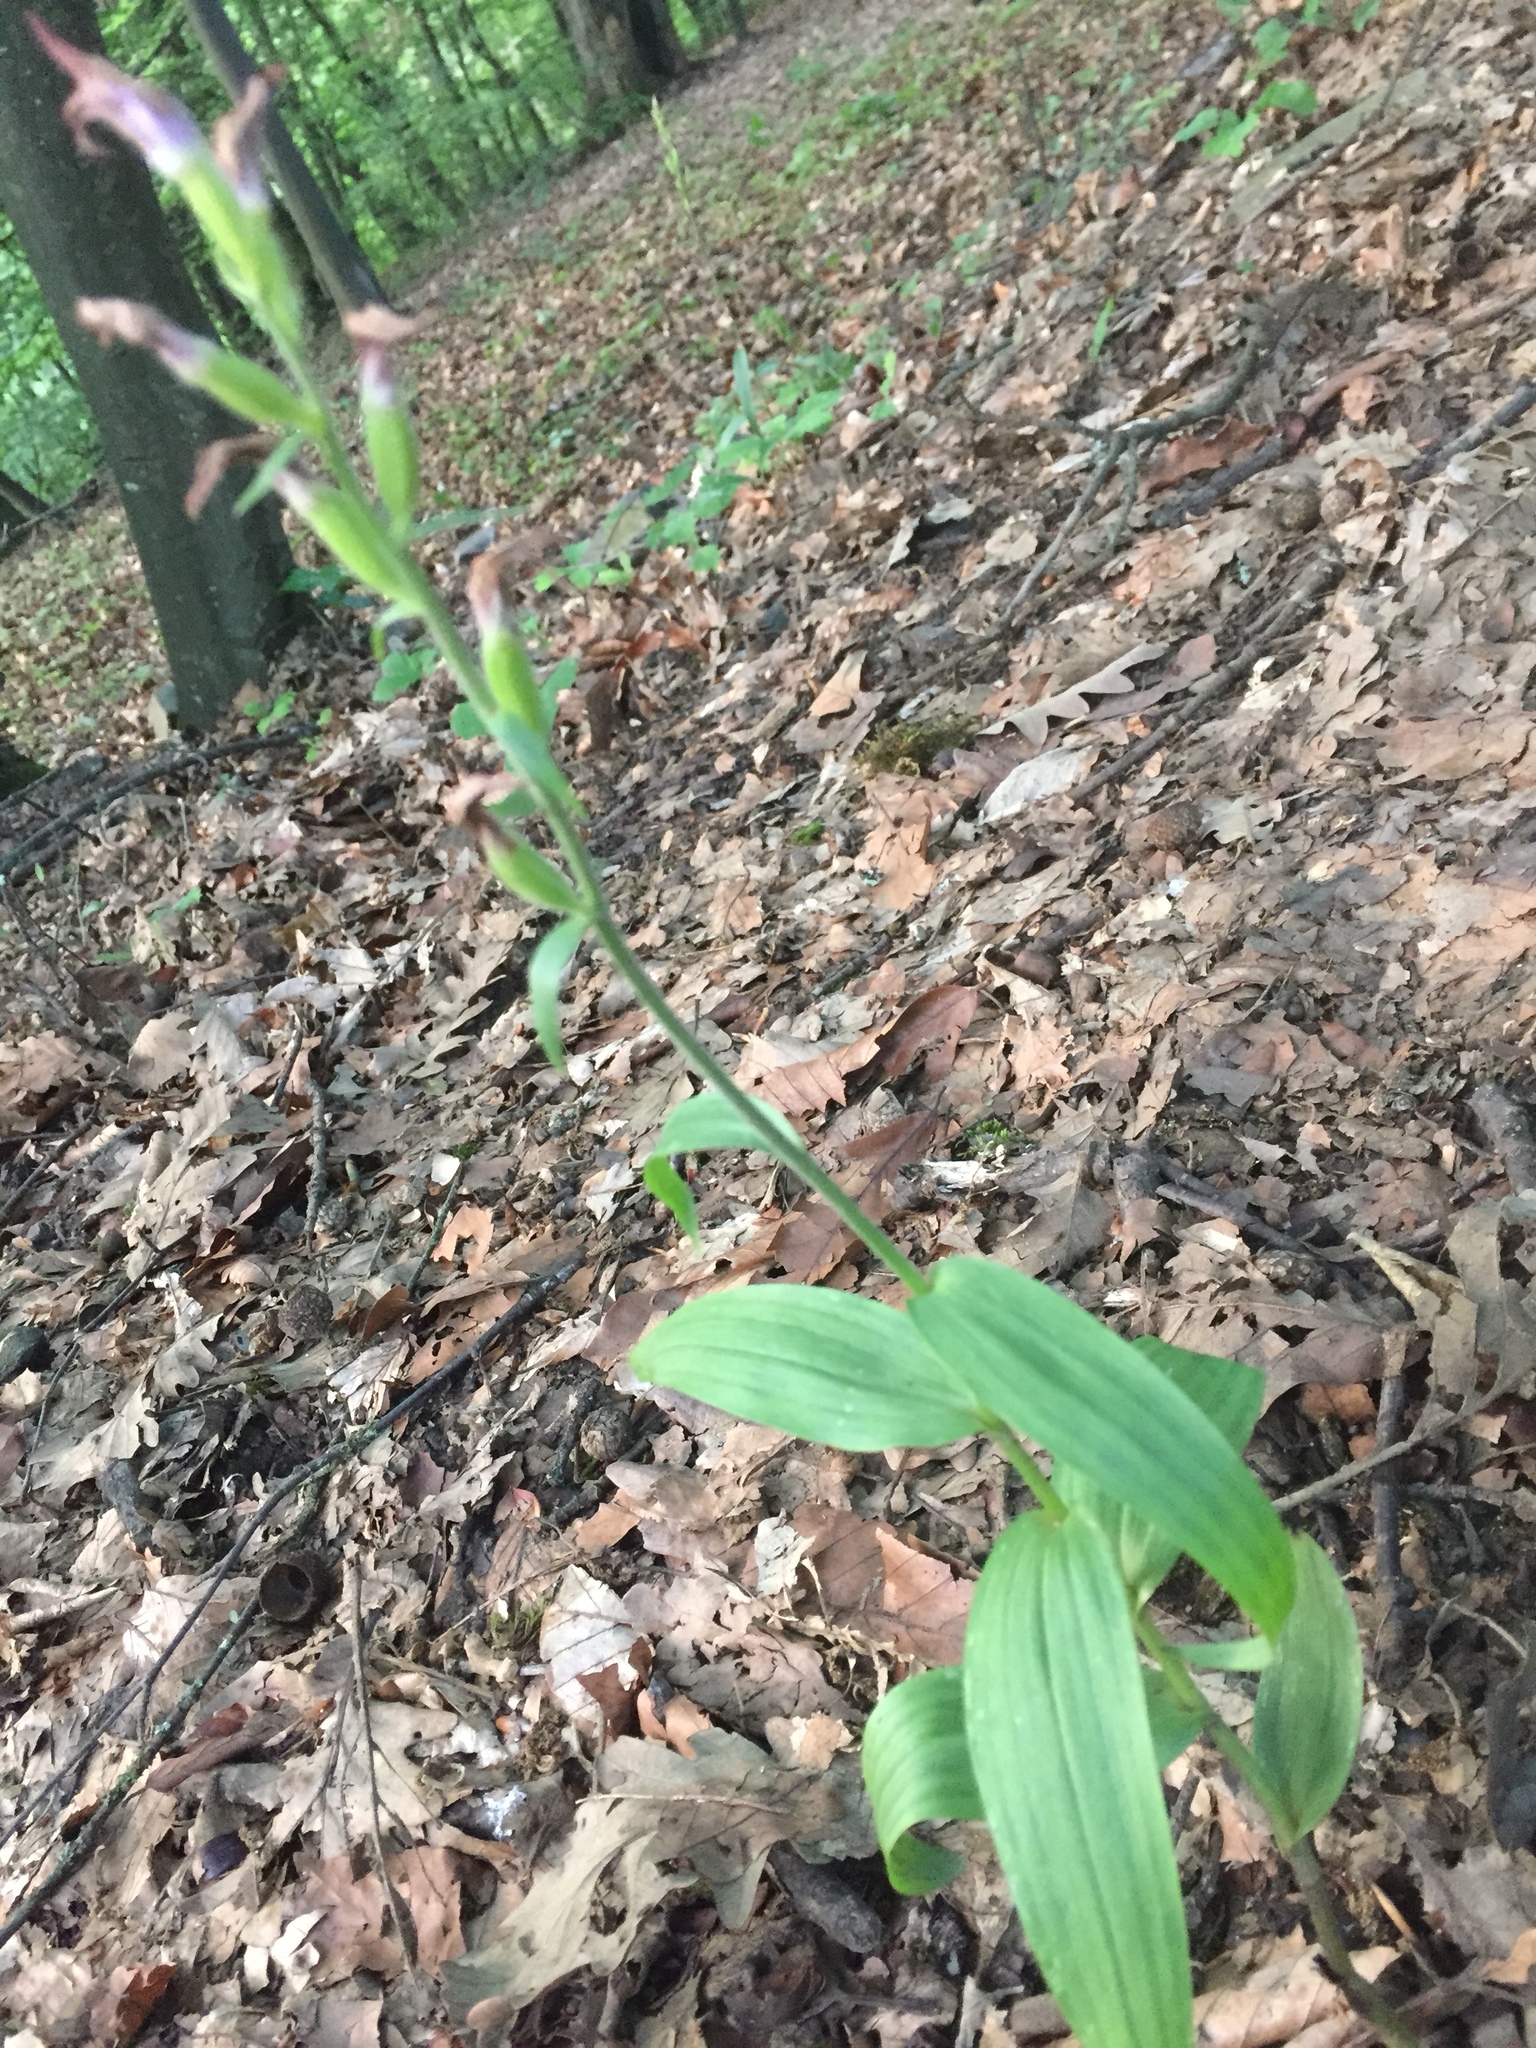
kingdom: Plantae
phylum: Tracheophyta
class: Liliopsida
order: Asparagales
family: Orchidaceae
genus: Cephalanthera
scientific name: Cephalanthera rubra
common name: Red helleborine
